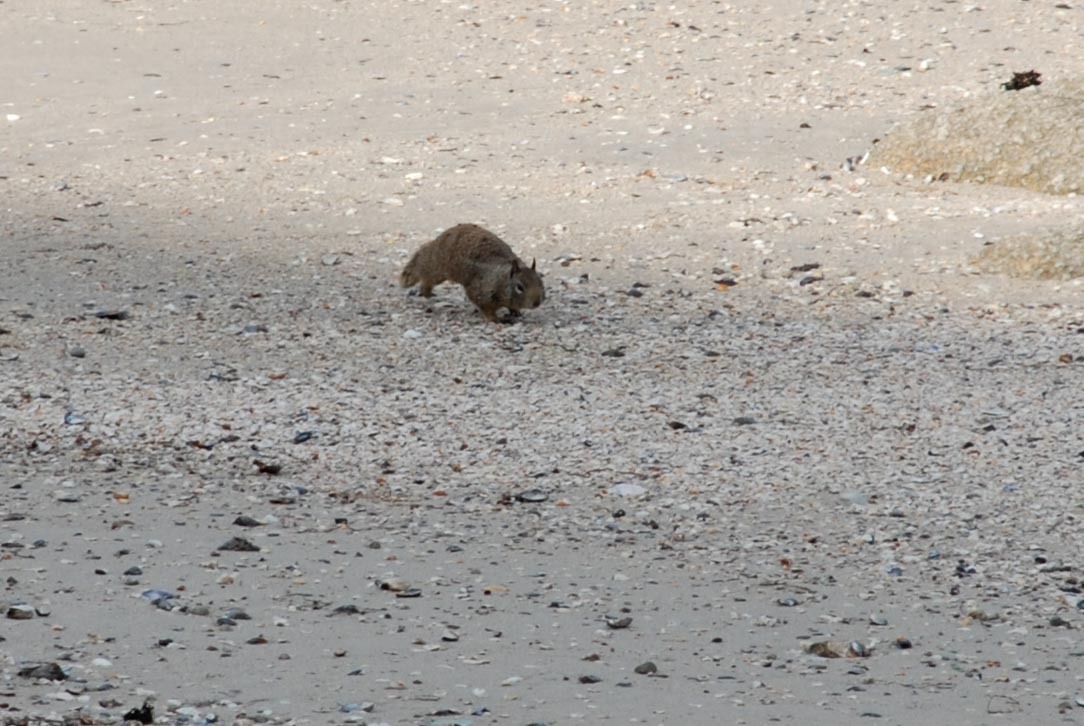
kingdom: Animalia
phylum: Chordata
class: Mammalia
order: Rodentia
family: Sciuridae
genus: Otospermophilus
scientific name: Otospermophilus beecheyi
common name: California ground squirrel
